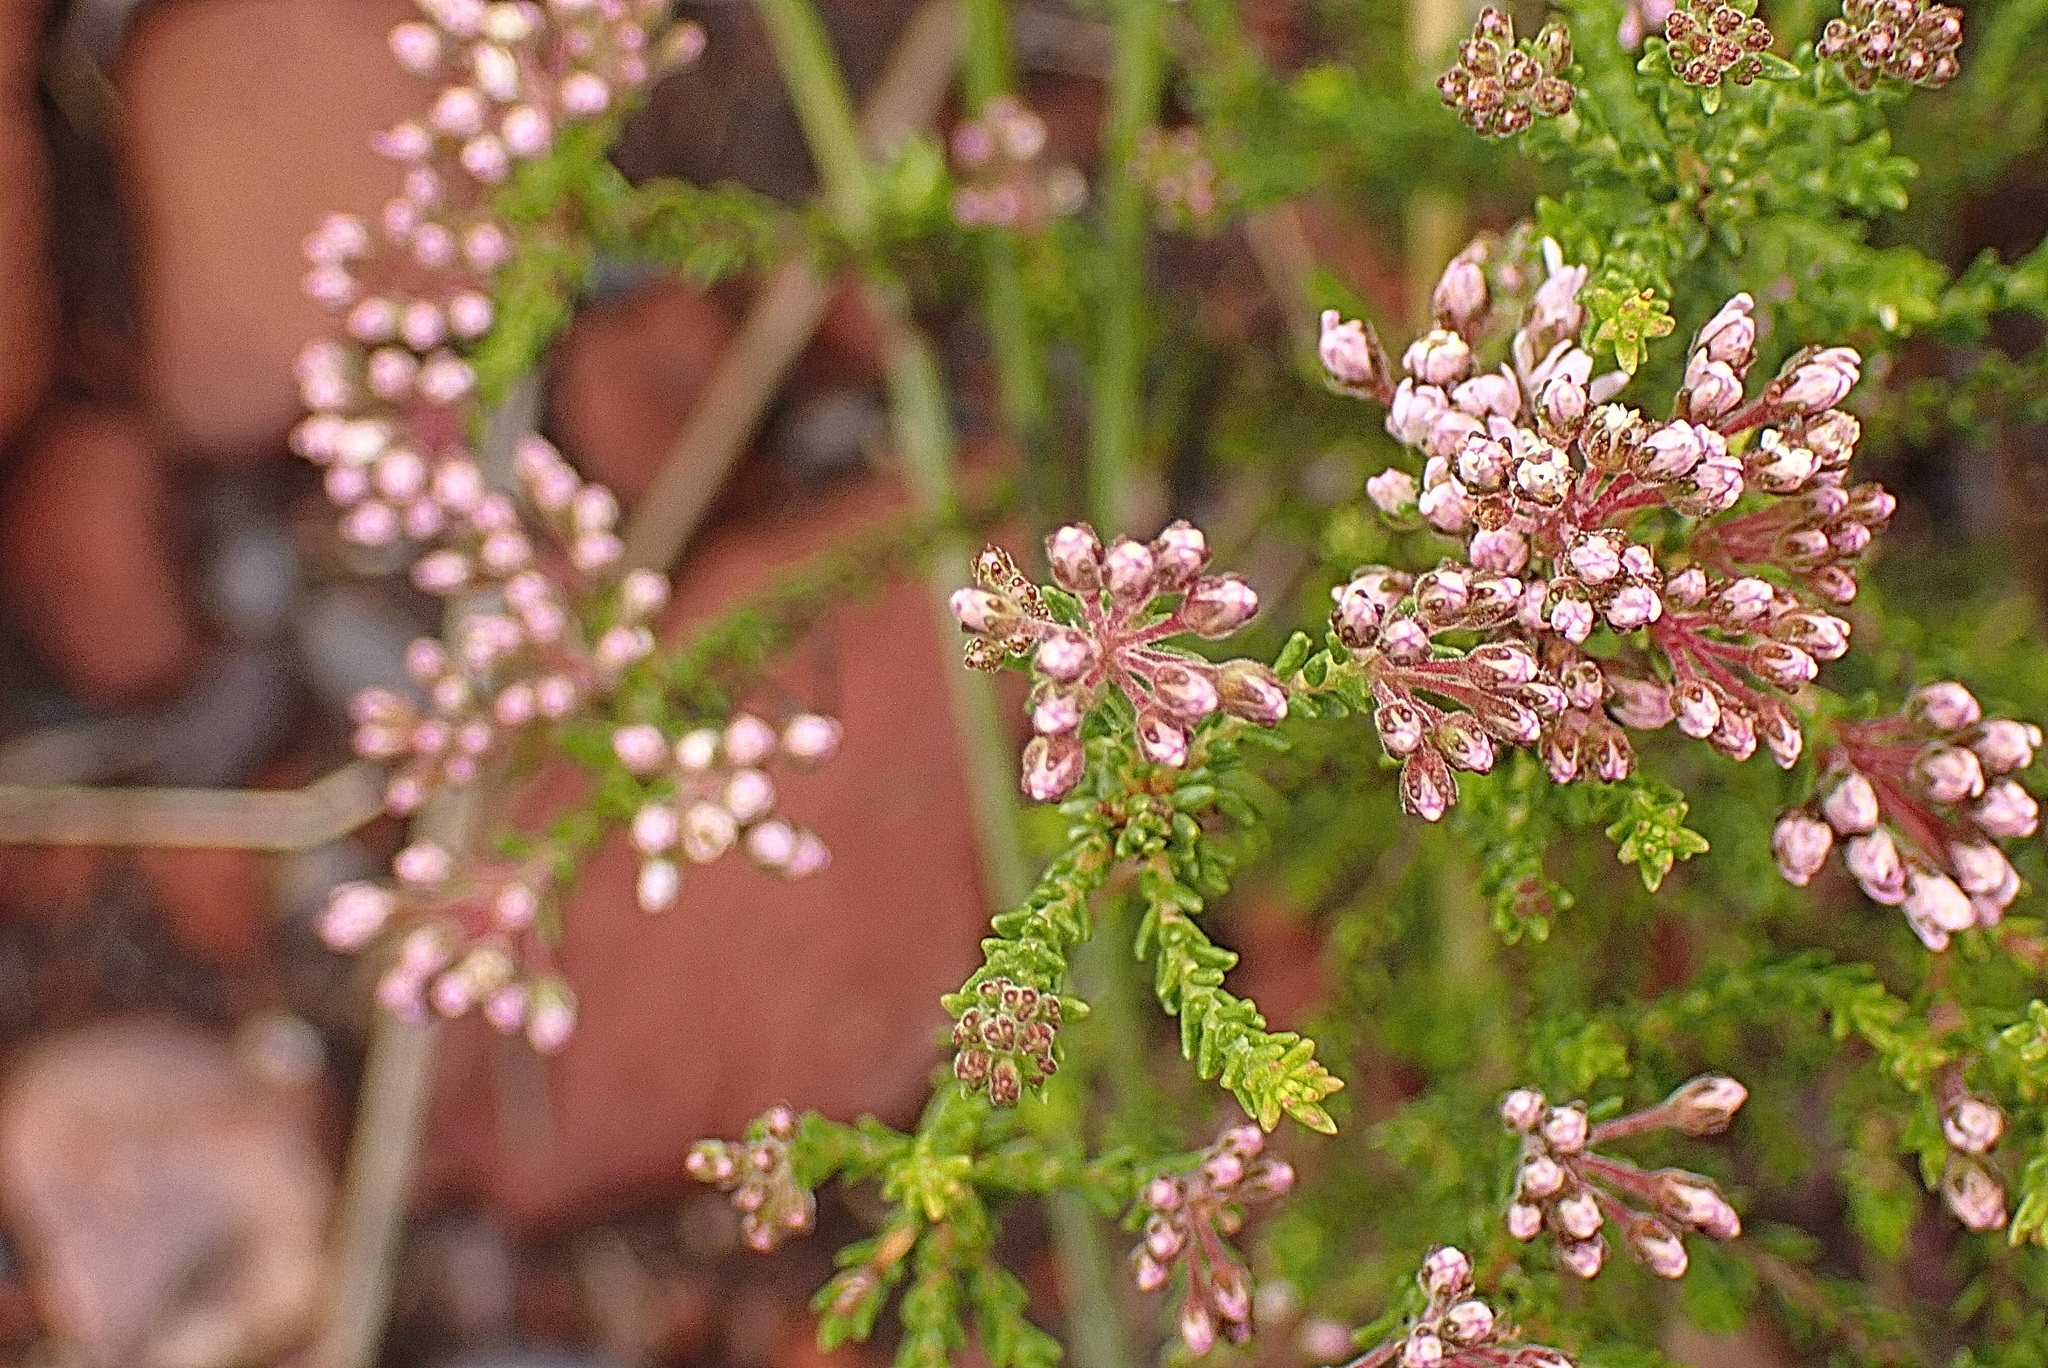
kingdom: Plantae
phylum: Tracheophyta
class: Magnoliopsida
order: Sapindales
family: Rutaceae
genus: Agathosma
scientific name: Agathosma capensis
